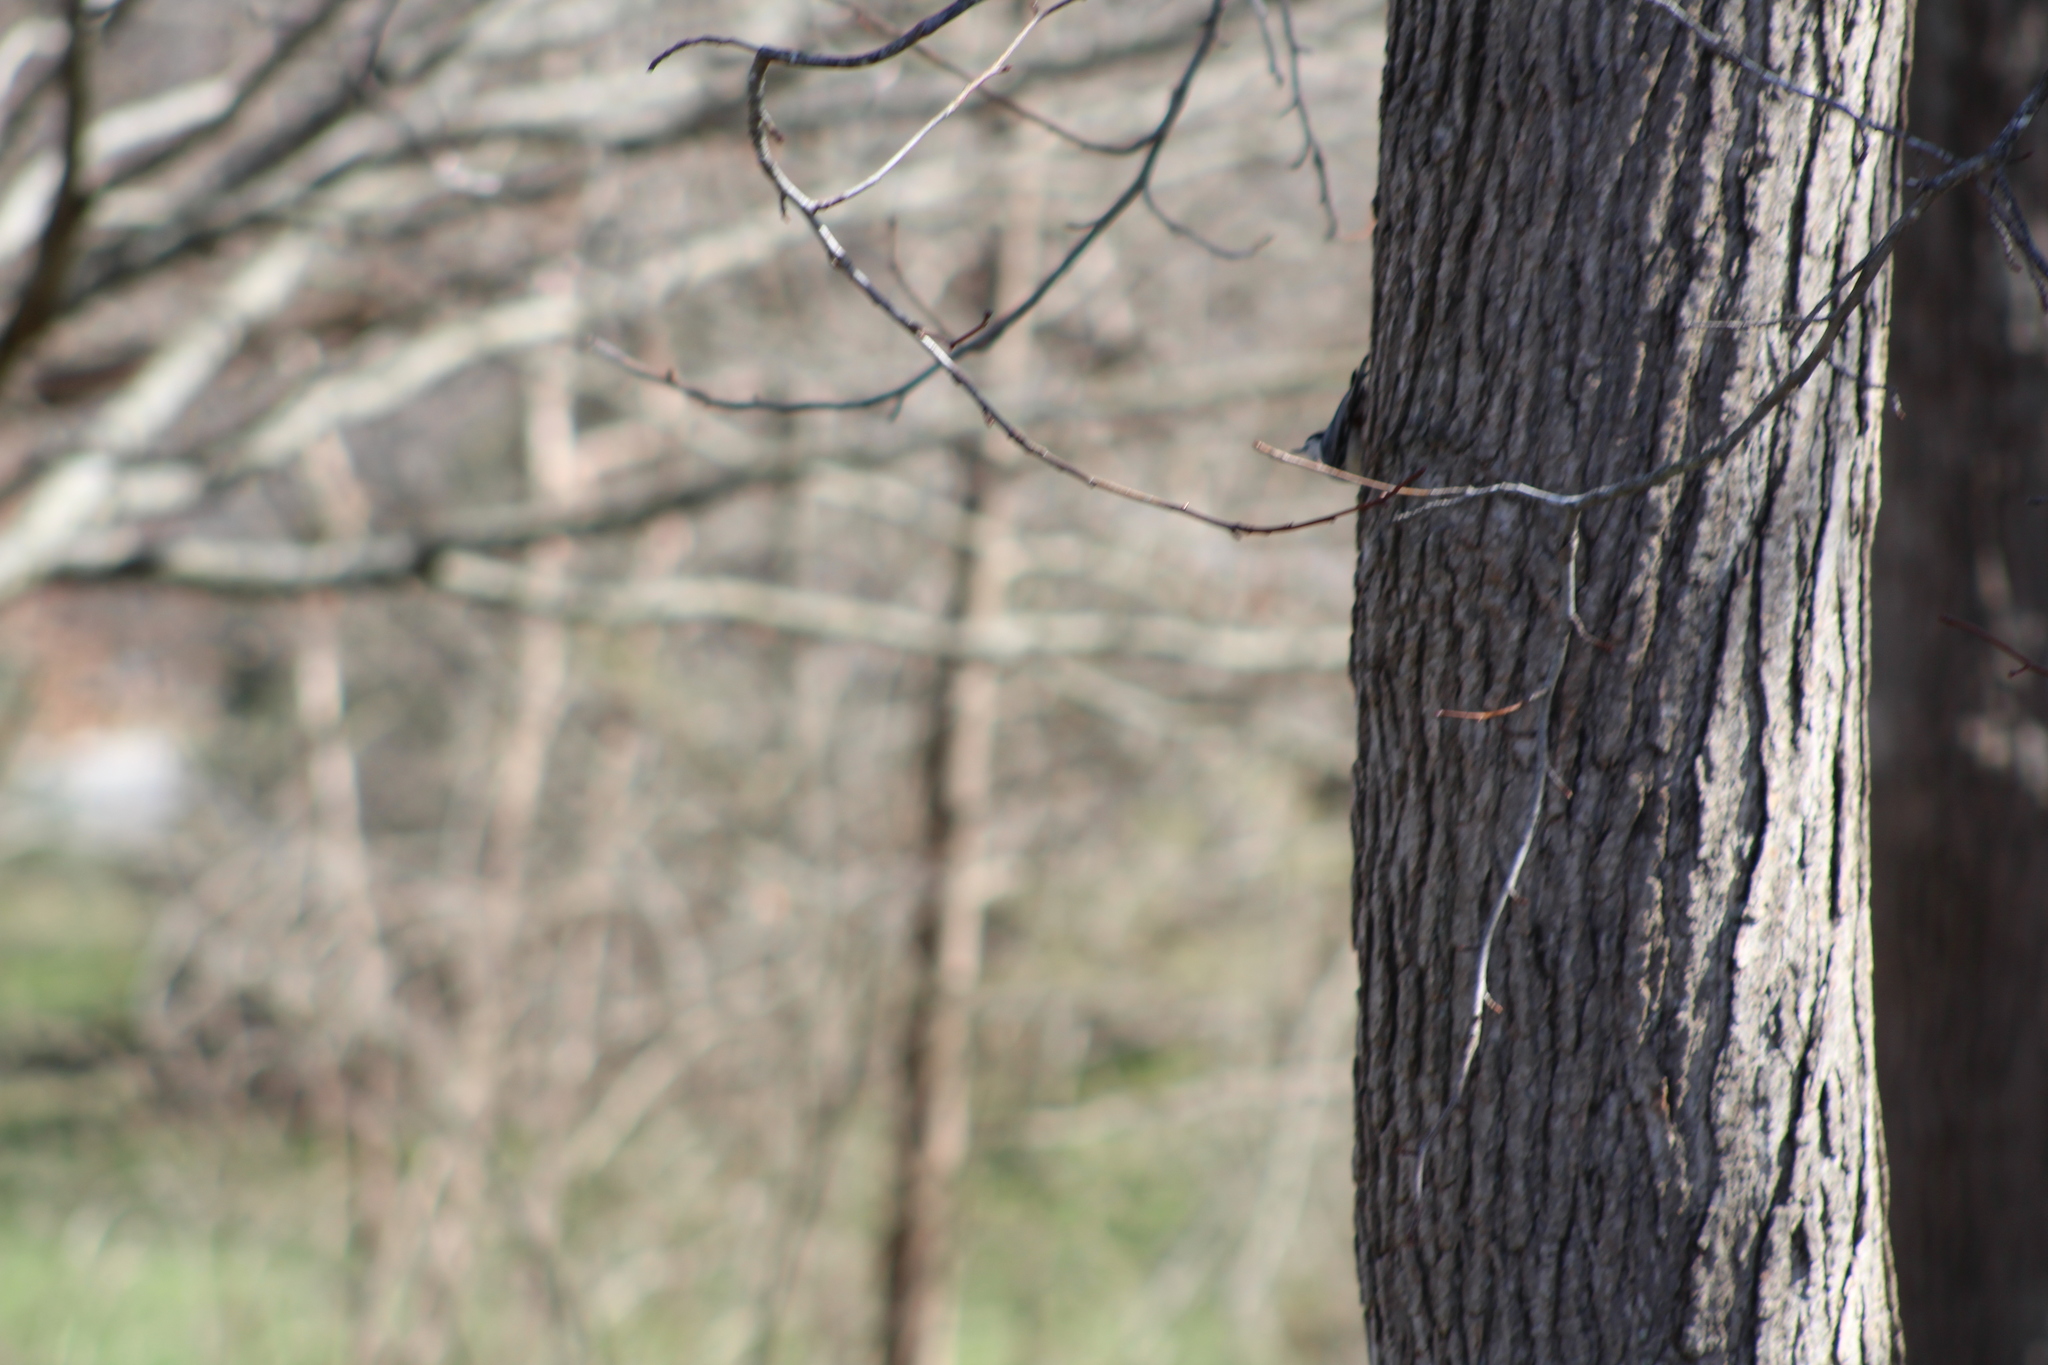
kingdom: Animalia
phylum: Chordata
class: Aves
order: Passeriformes
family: Sittidae
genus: Sitta
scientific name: Sitta carolinensis
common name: White-breasted nuthatch
